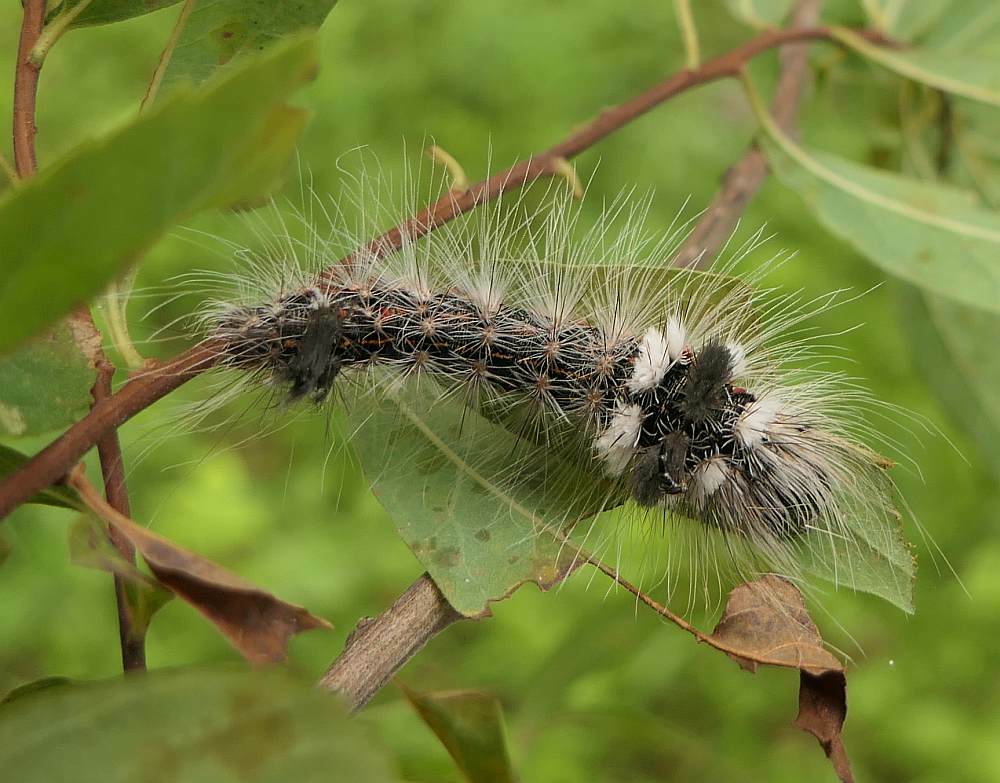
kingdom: Animalia
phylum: Arthropoda
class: Insecta
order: Lepidoptera
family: Noctuidae
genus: Acronicta
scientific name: Acronicta impleta
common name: Powdered dagger
